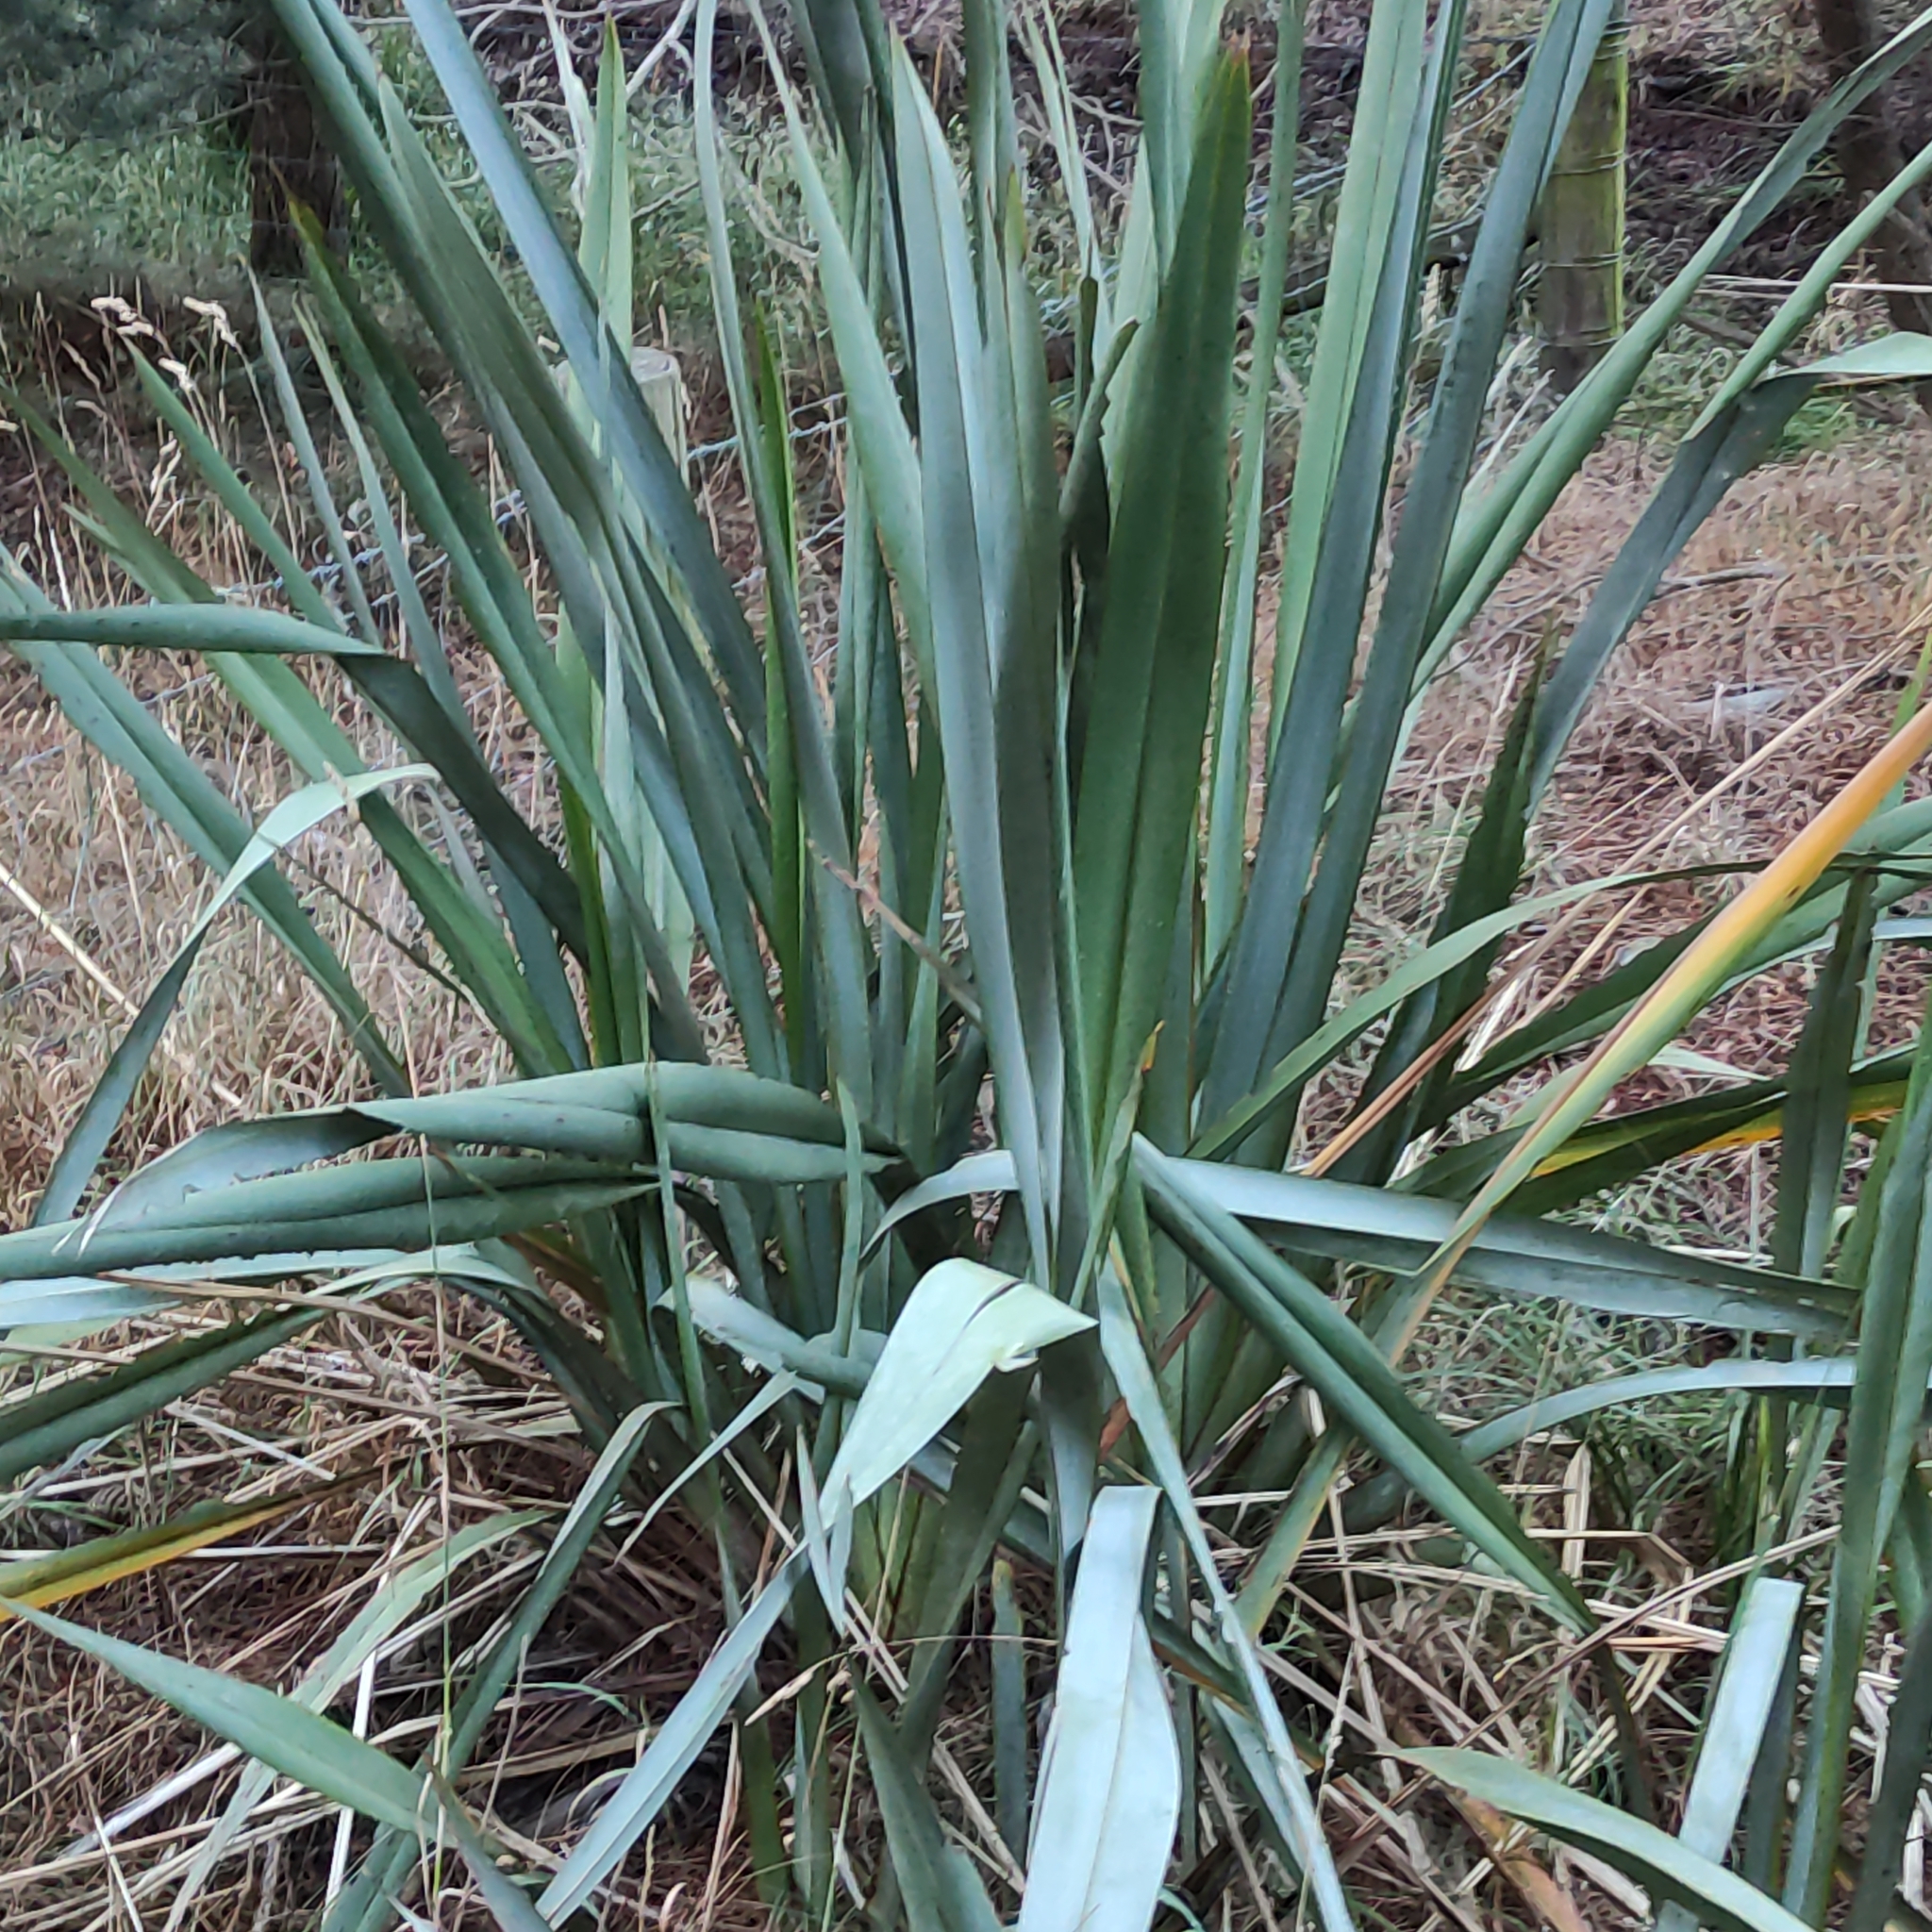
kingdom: Plantae
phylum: Tracheophyta
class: Liliopsida
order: Asparagales
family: Asphodelaceae
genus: Phormium
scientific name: Phormium tenax
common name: New zealand flax
